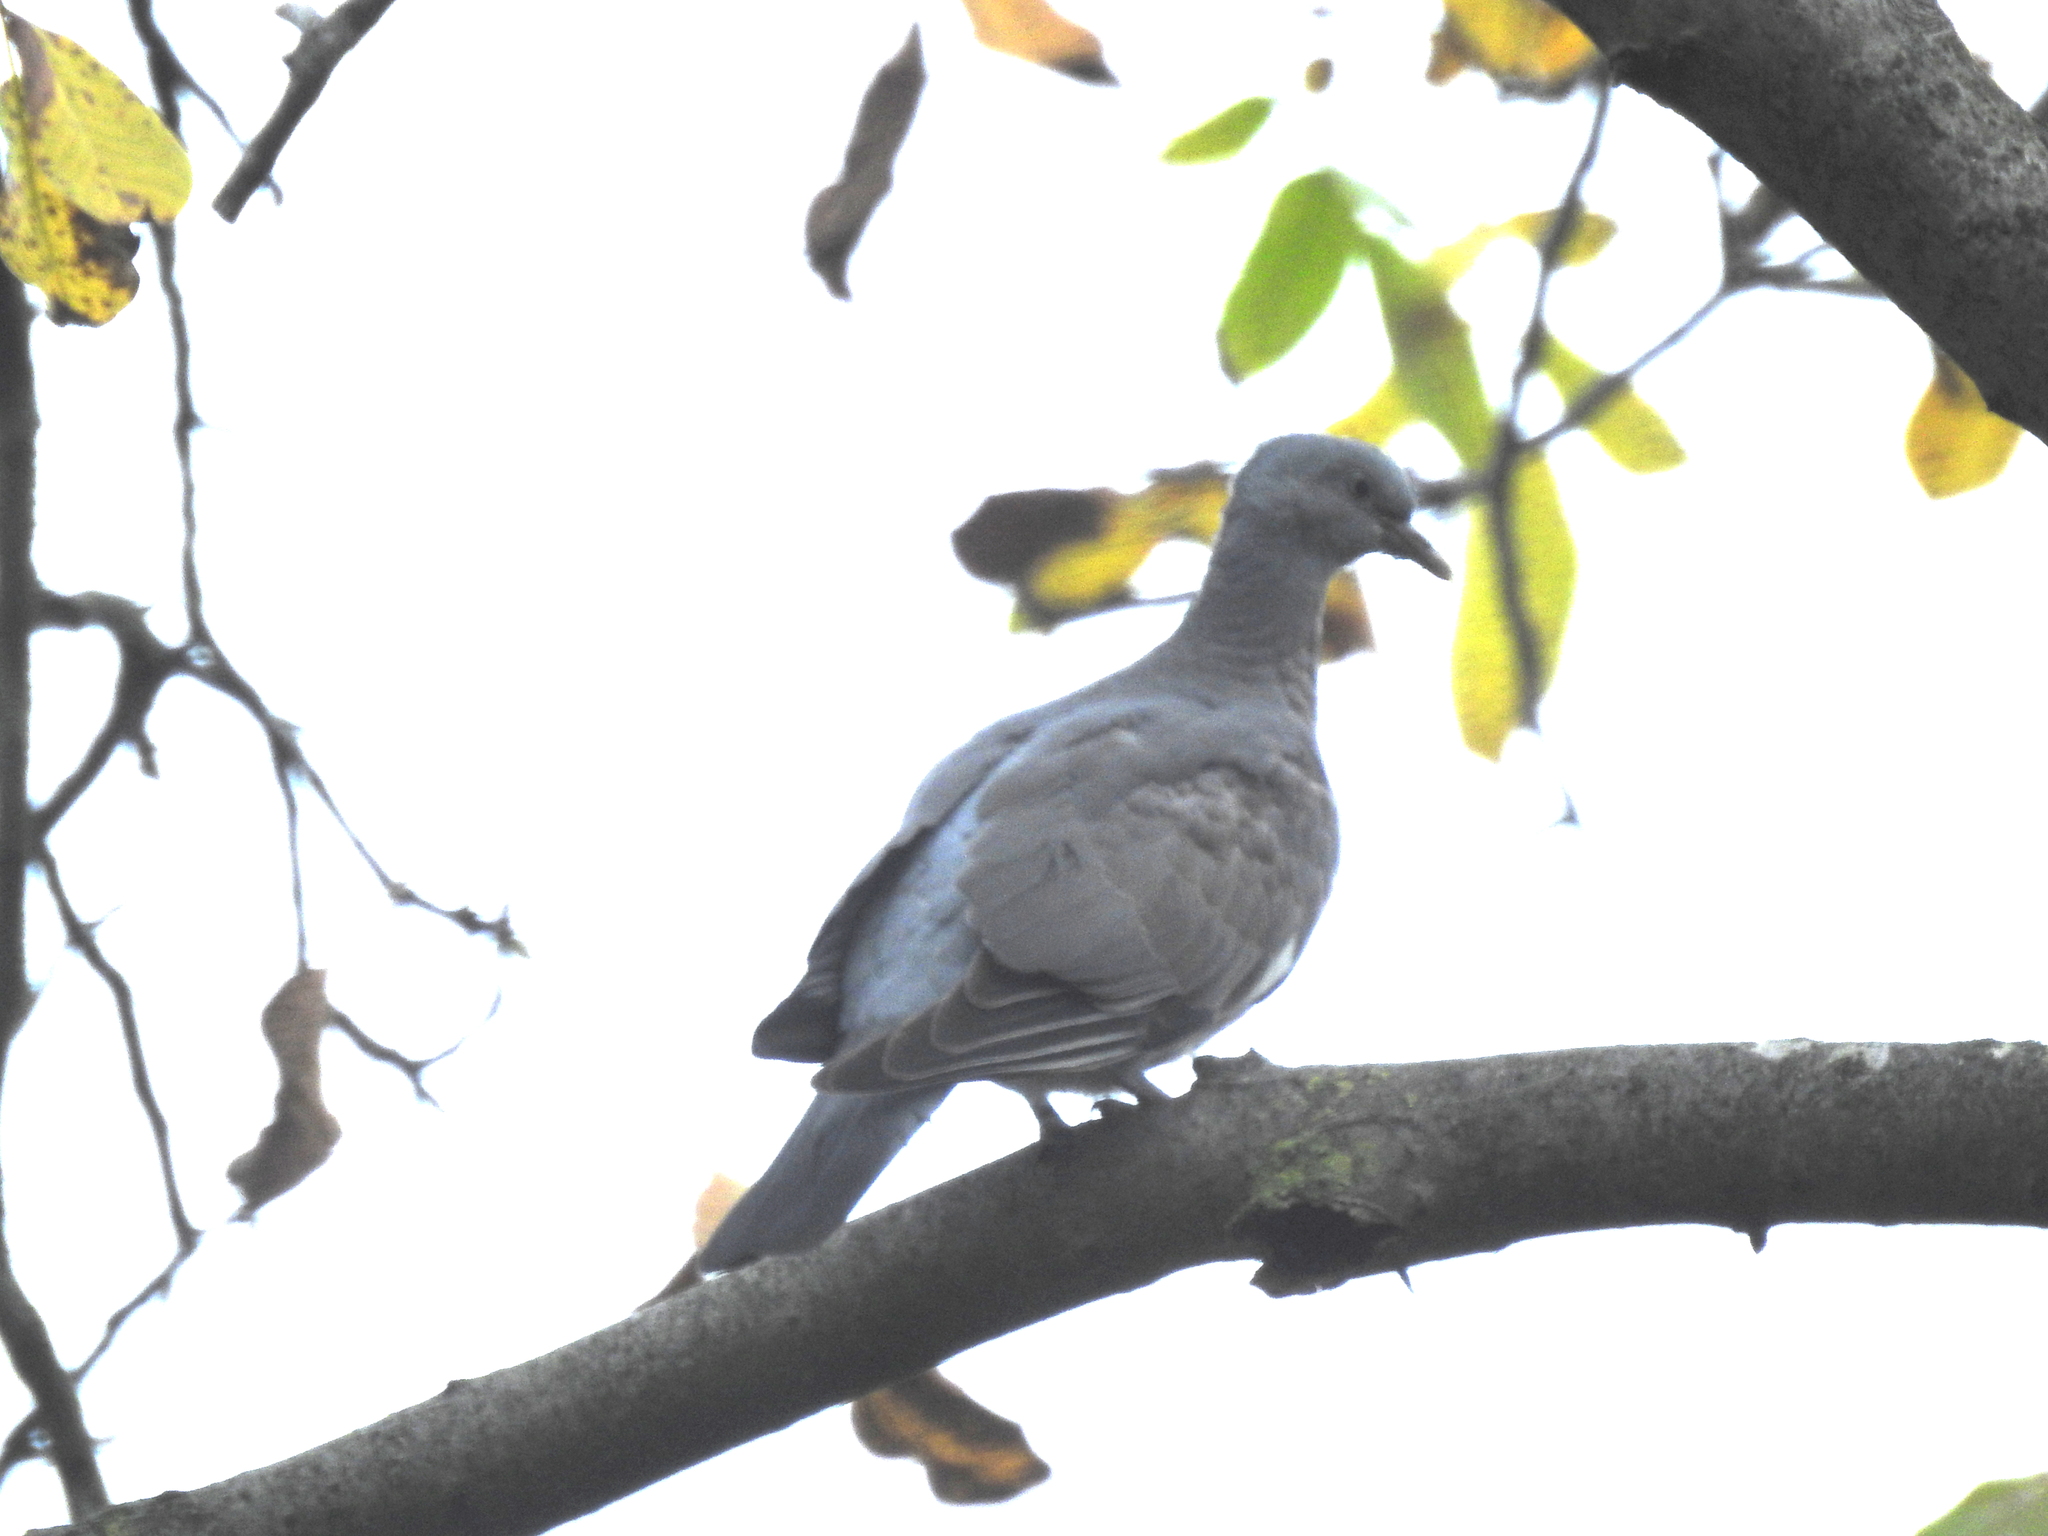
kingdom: Animalia
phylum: Chordata
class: Aves
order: Columbiformes
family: Columbidae
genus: Columba
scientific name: Columba palumbus
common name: Common wood pigeon
